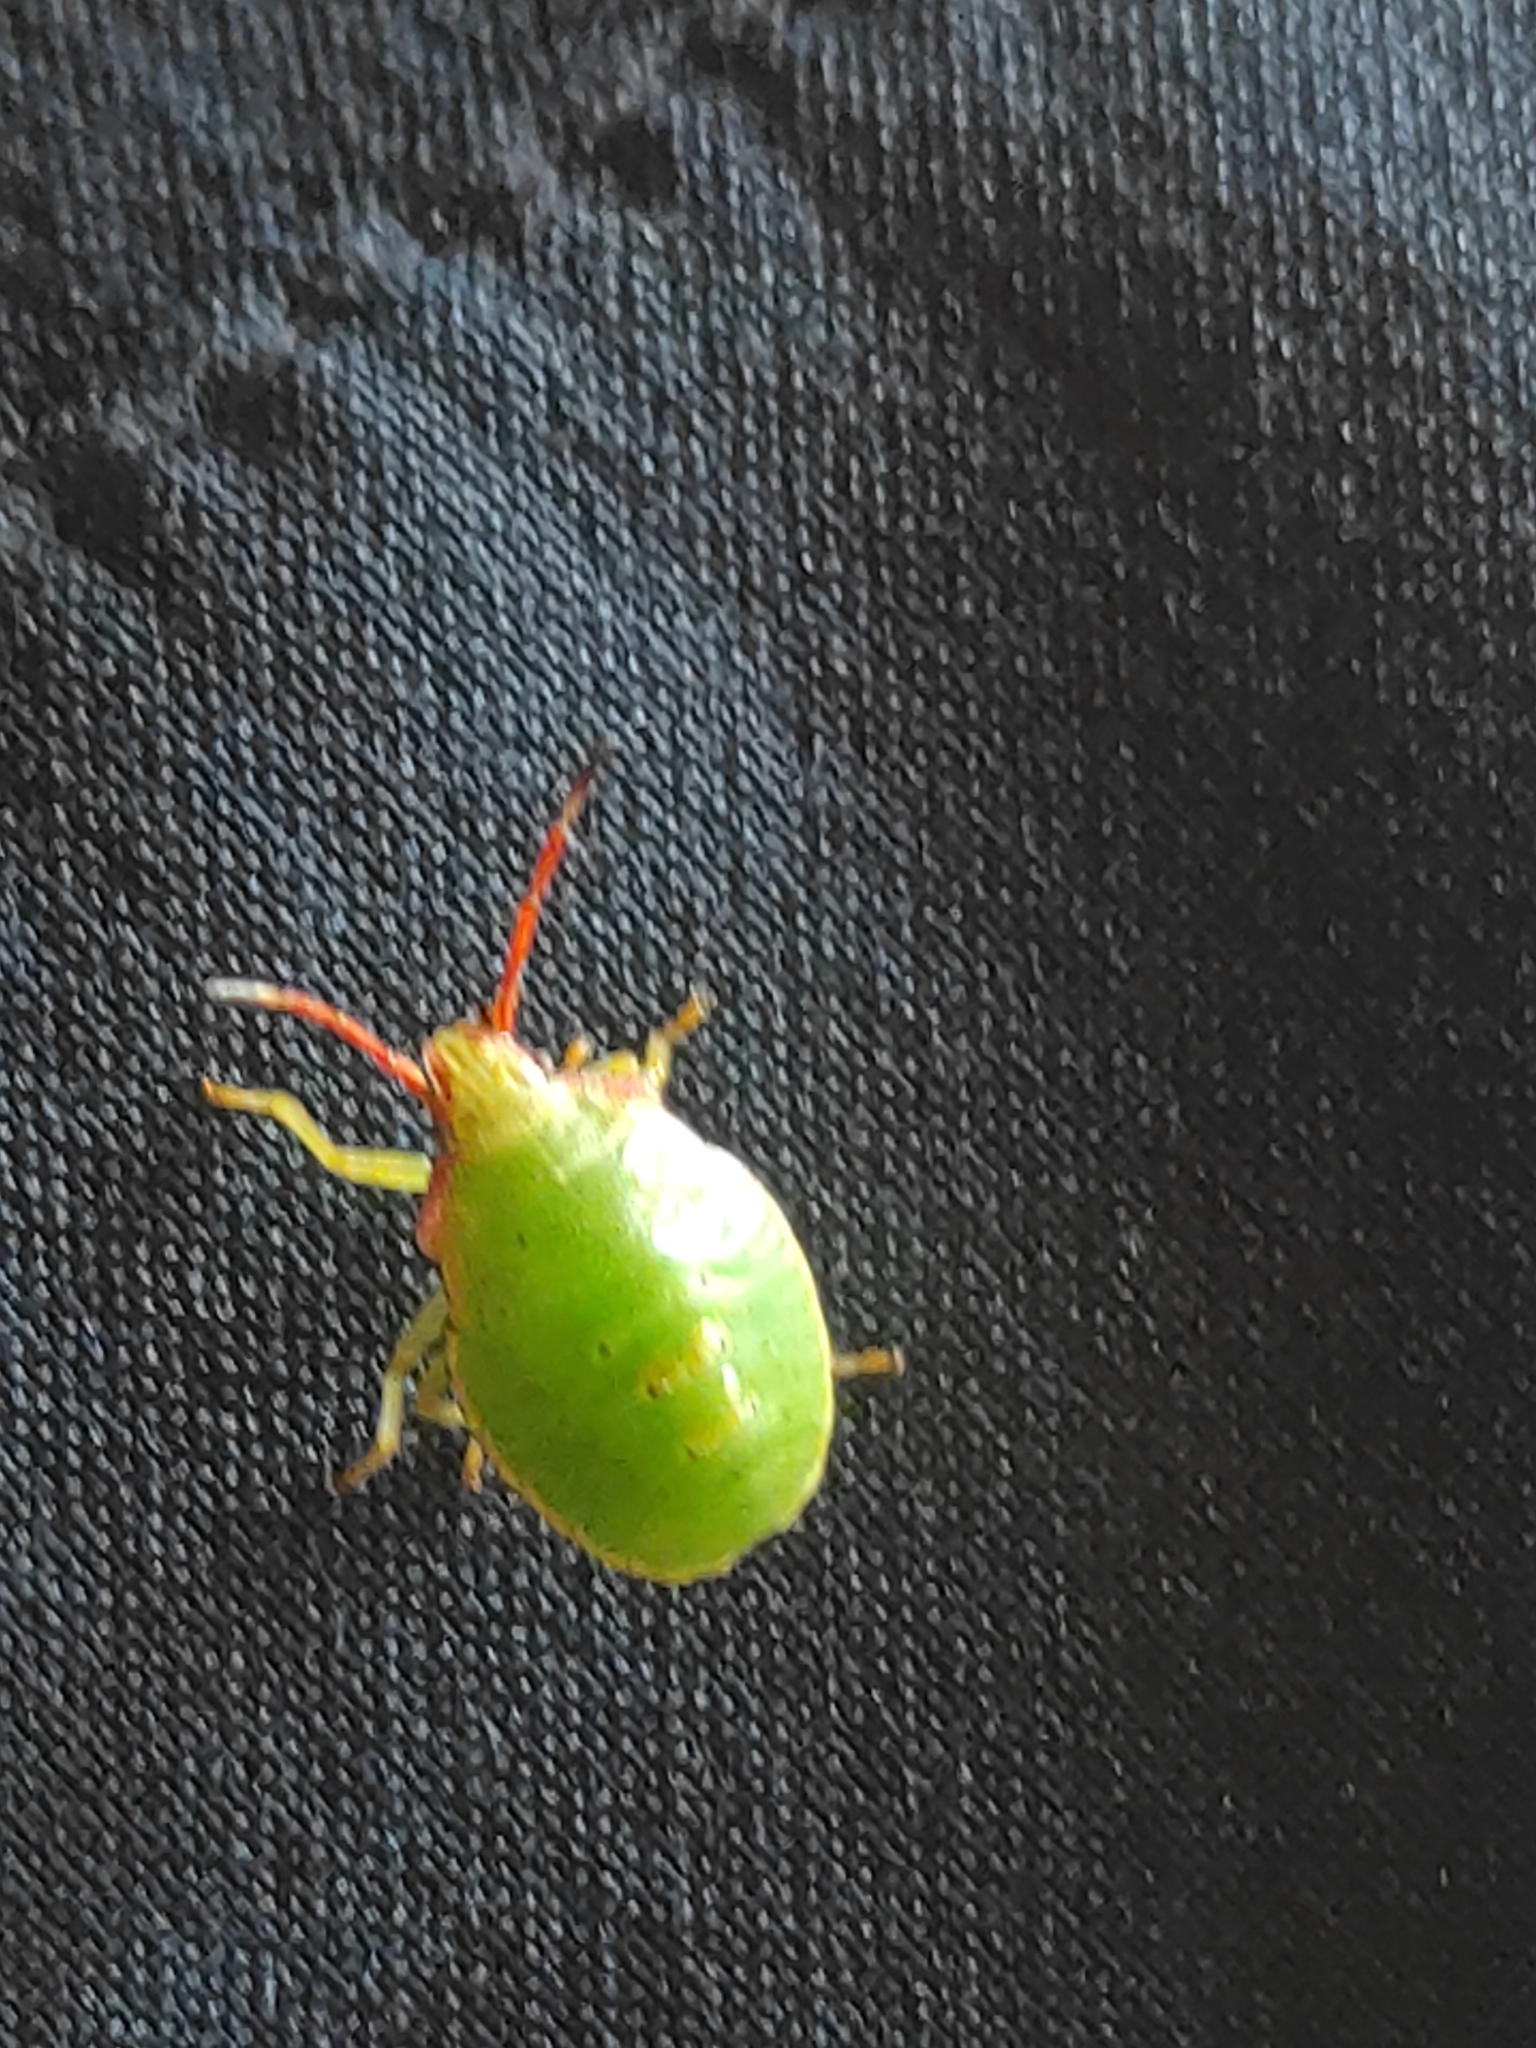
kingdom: Animalia
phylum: Arthropoda
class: Insecta
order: Hemiptera
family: Acanthosomatidae
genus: Acanthosoma
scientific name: Acanthosoma haemorrhoidale
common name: Hawthorn shieldbug
